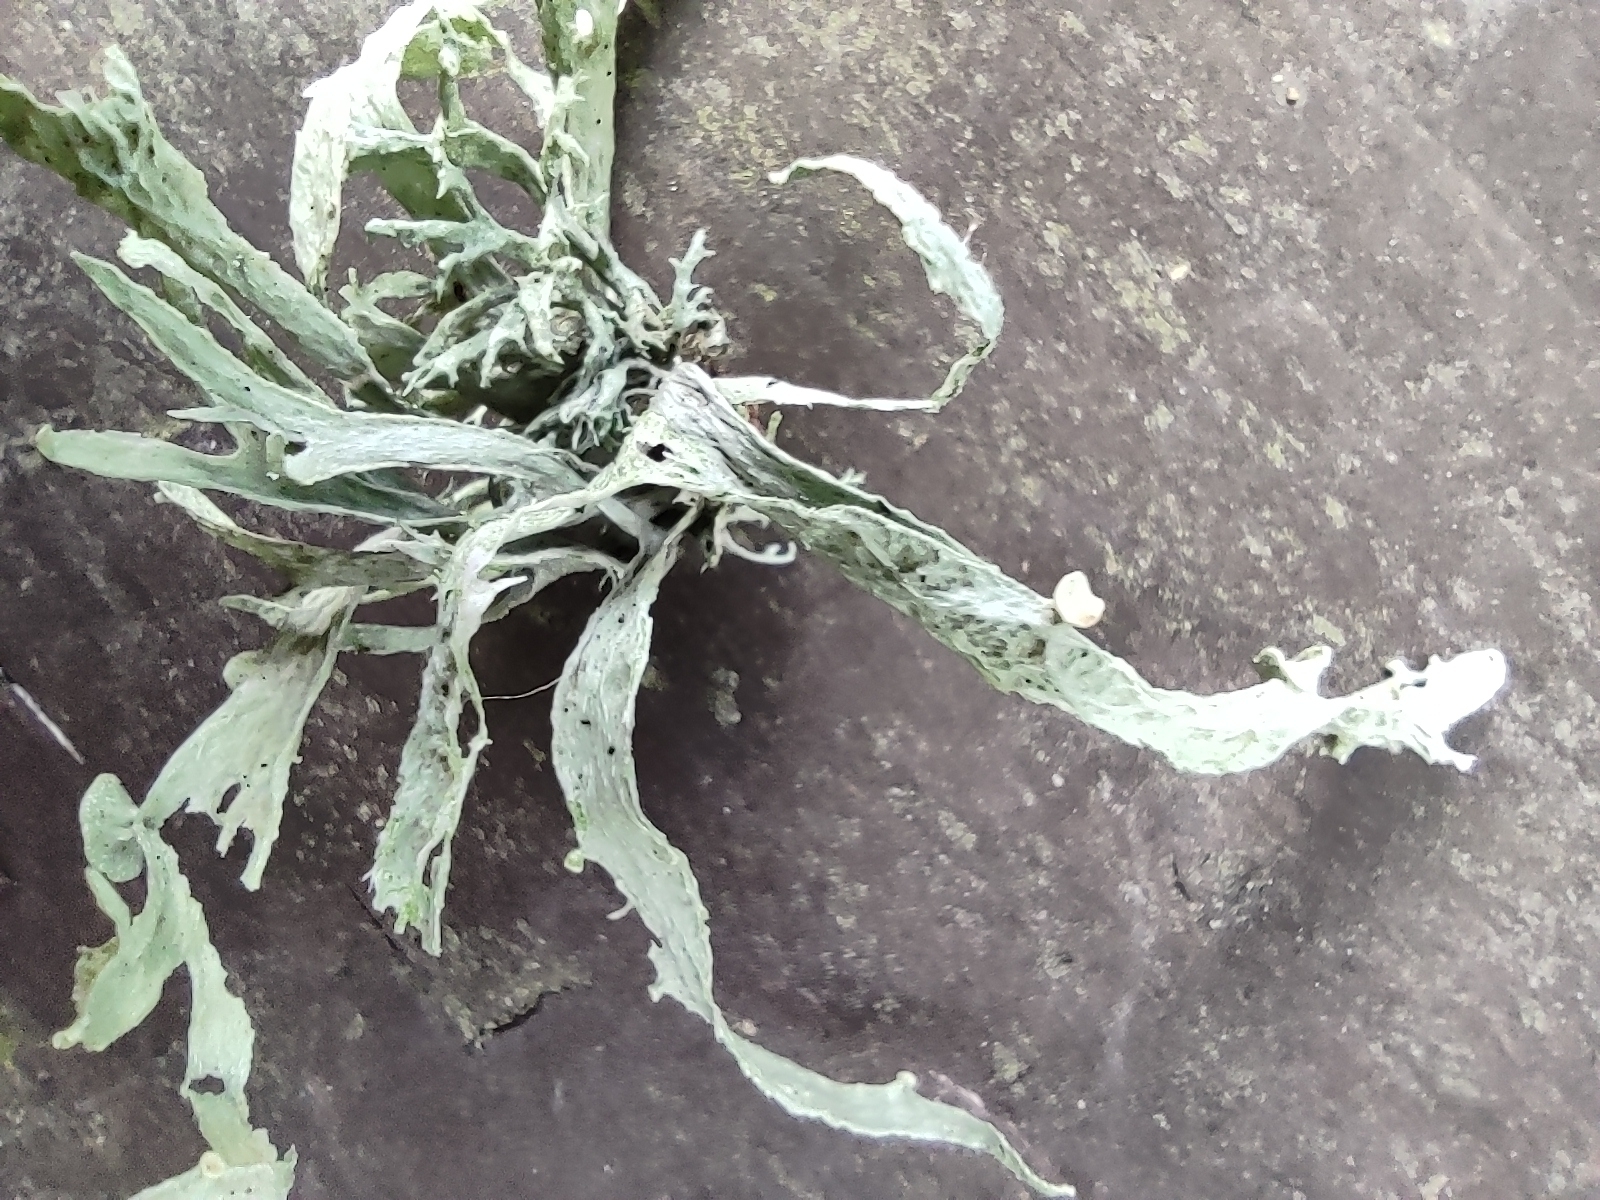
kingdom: Fungi
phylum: Ascomycota
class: Lecanoromycetes
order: Lecanorales
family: Ramalinaceae
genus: Ramalina
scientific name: Ramalina fraxinea
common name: Cartilage lichen
